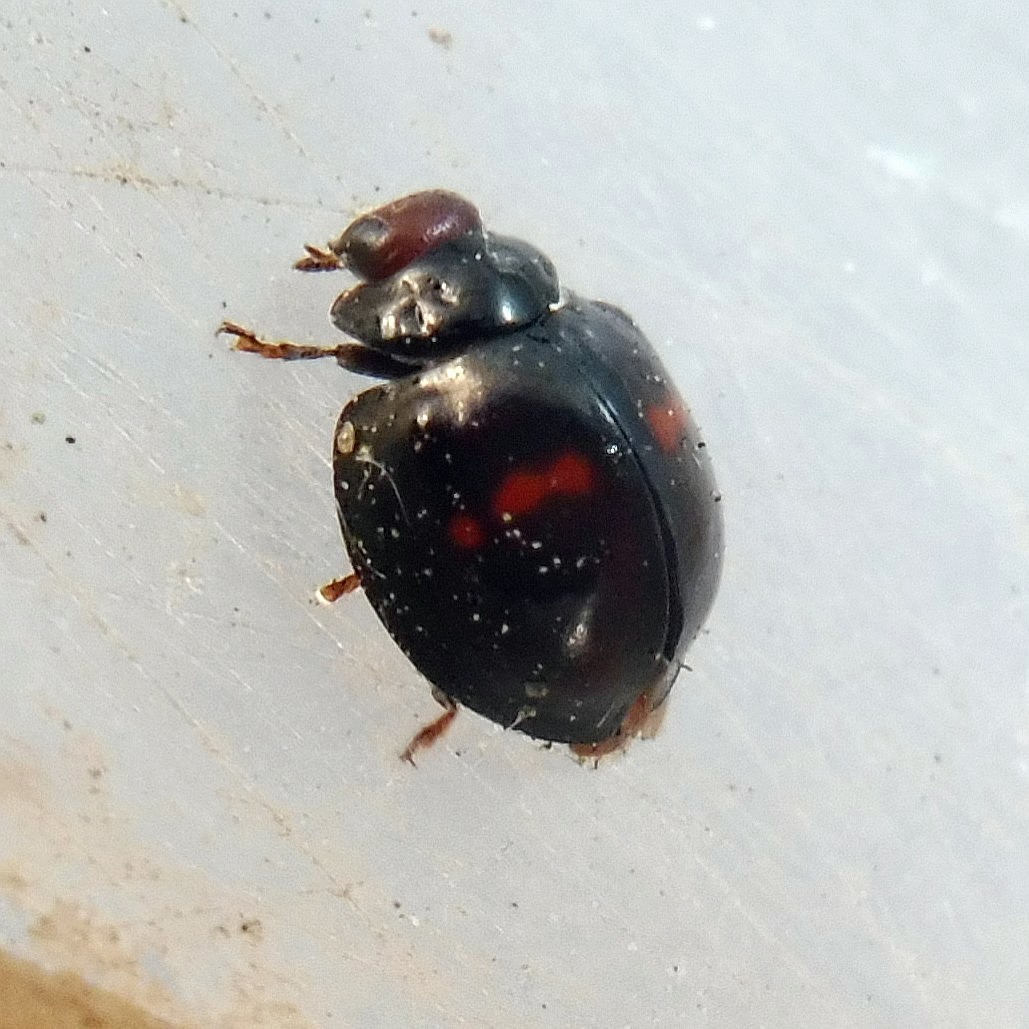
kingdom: Animalia
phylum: Arthropoda
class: Insecta
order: Coleoptera
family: Coccinellidae
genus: Chilocorus
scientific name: Chilocorus bipustulatus
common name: Heather ladybird
